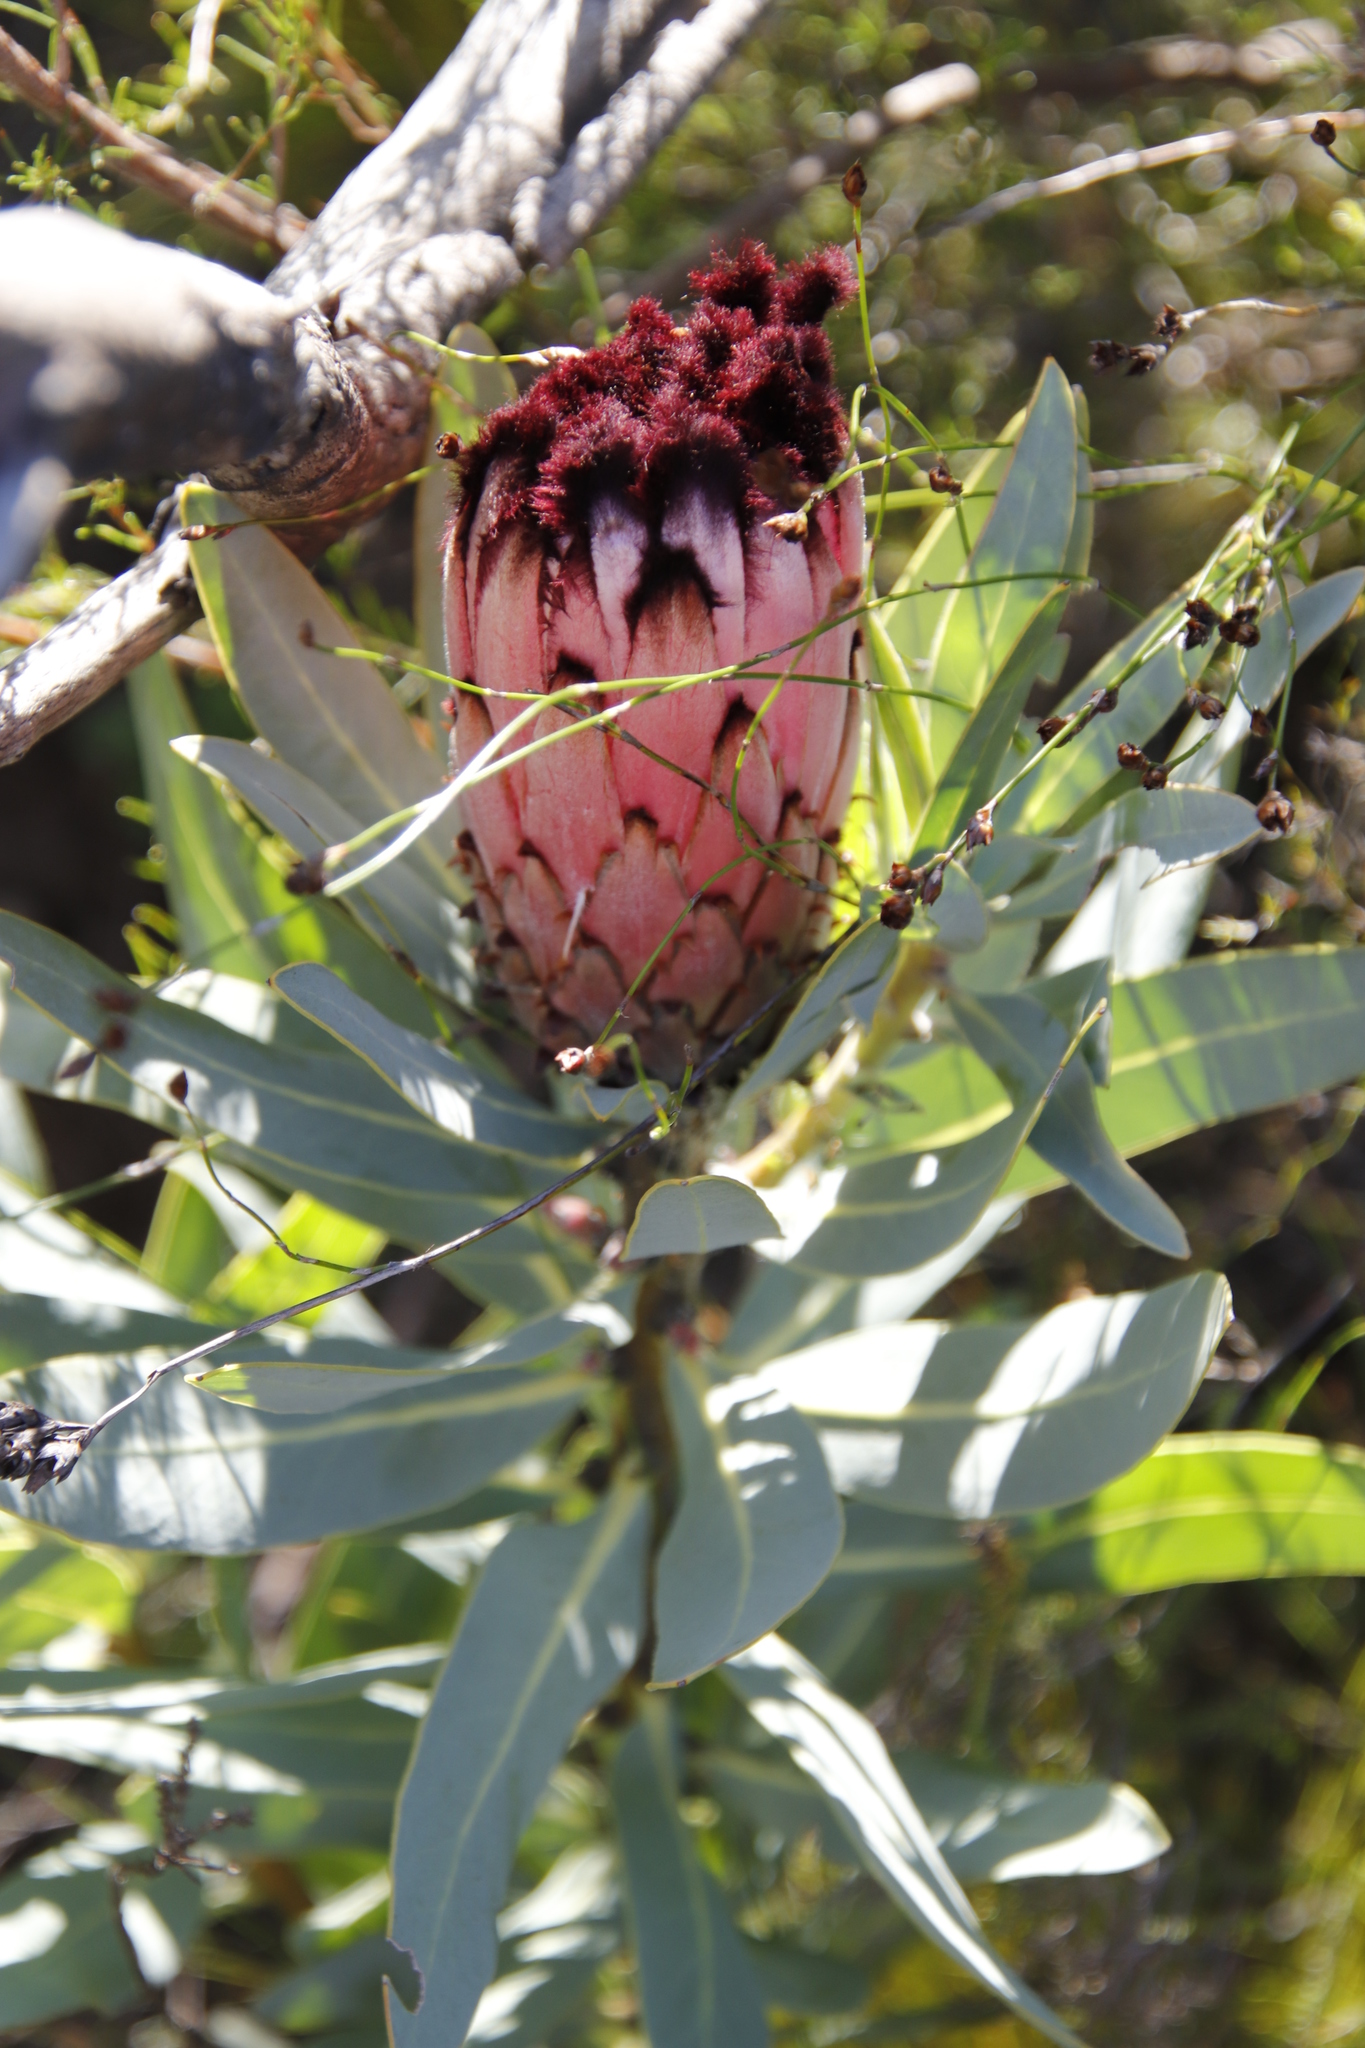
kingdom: Plantae
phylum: Tracheophyta
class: Magnoliopsida
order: Proteales
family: Proteaceae
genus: Protea
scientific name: Protea laurifolia
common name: Grey-leaf sugarbsh
